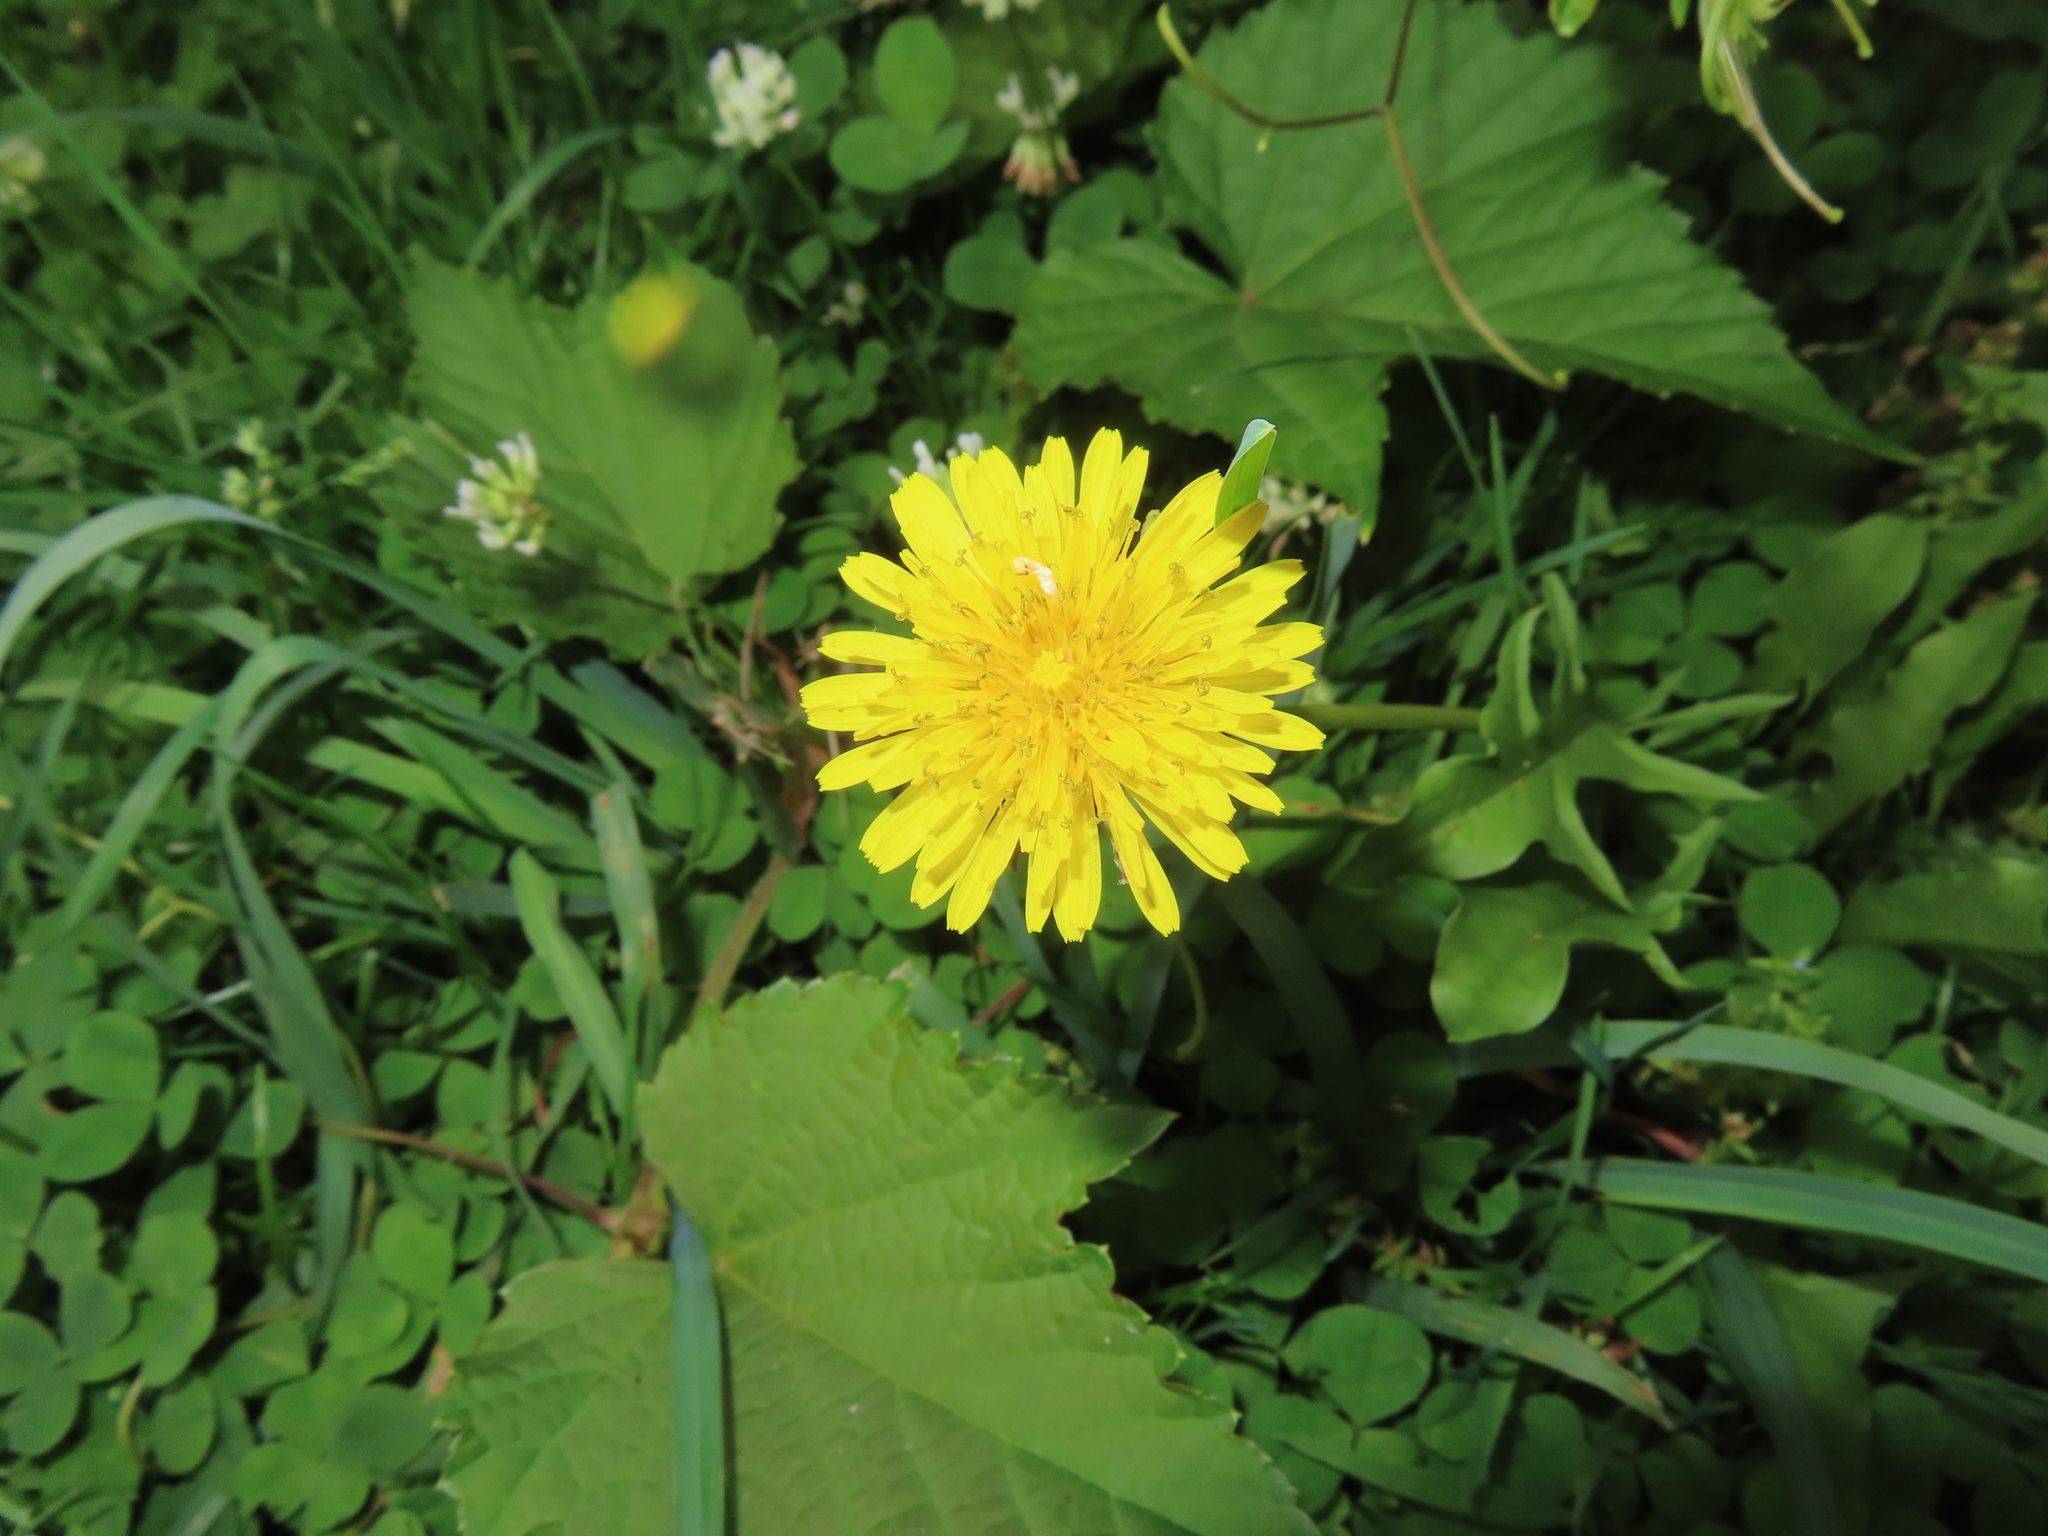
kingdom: Plantae
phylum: Tracheophyta
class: Magnoliopsida
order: Asterales
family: Asteraceae
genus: Taraxacum
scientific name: Taraxacum
